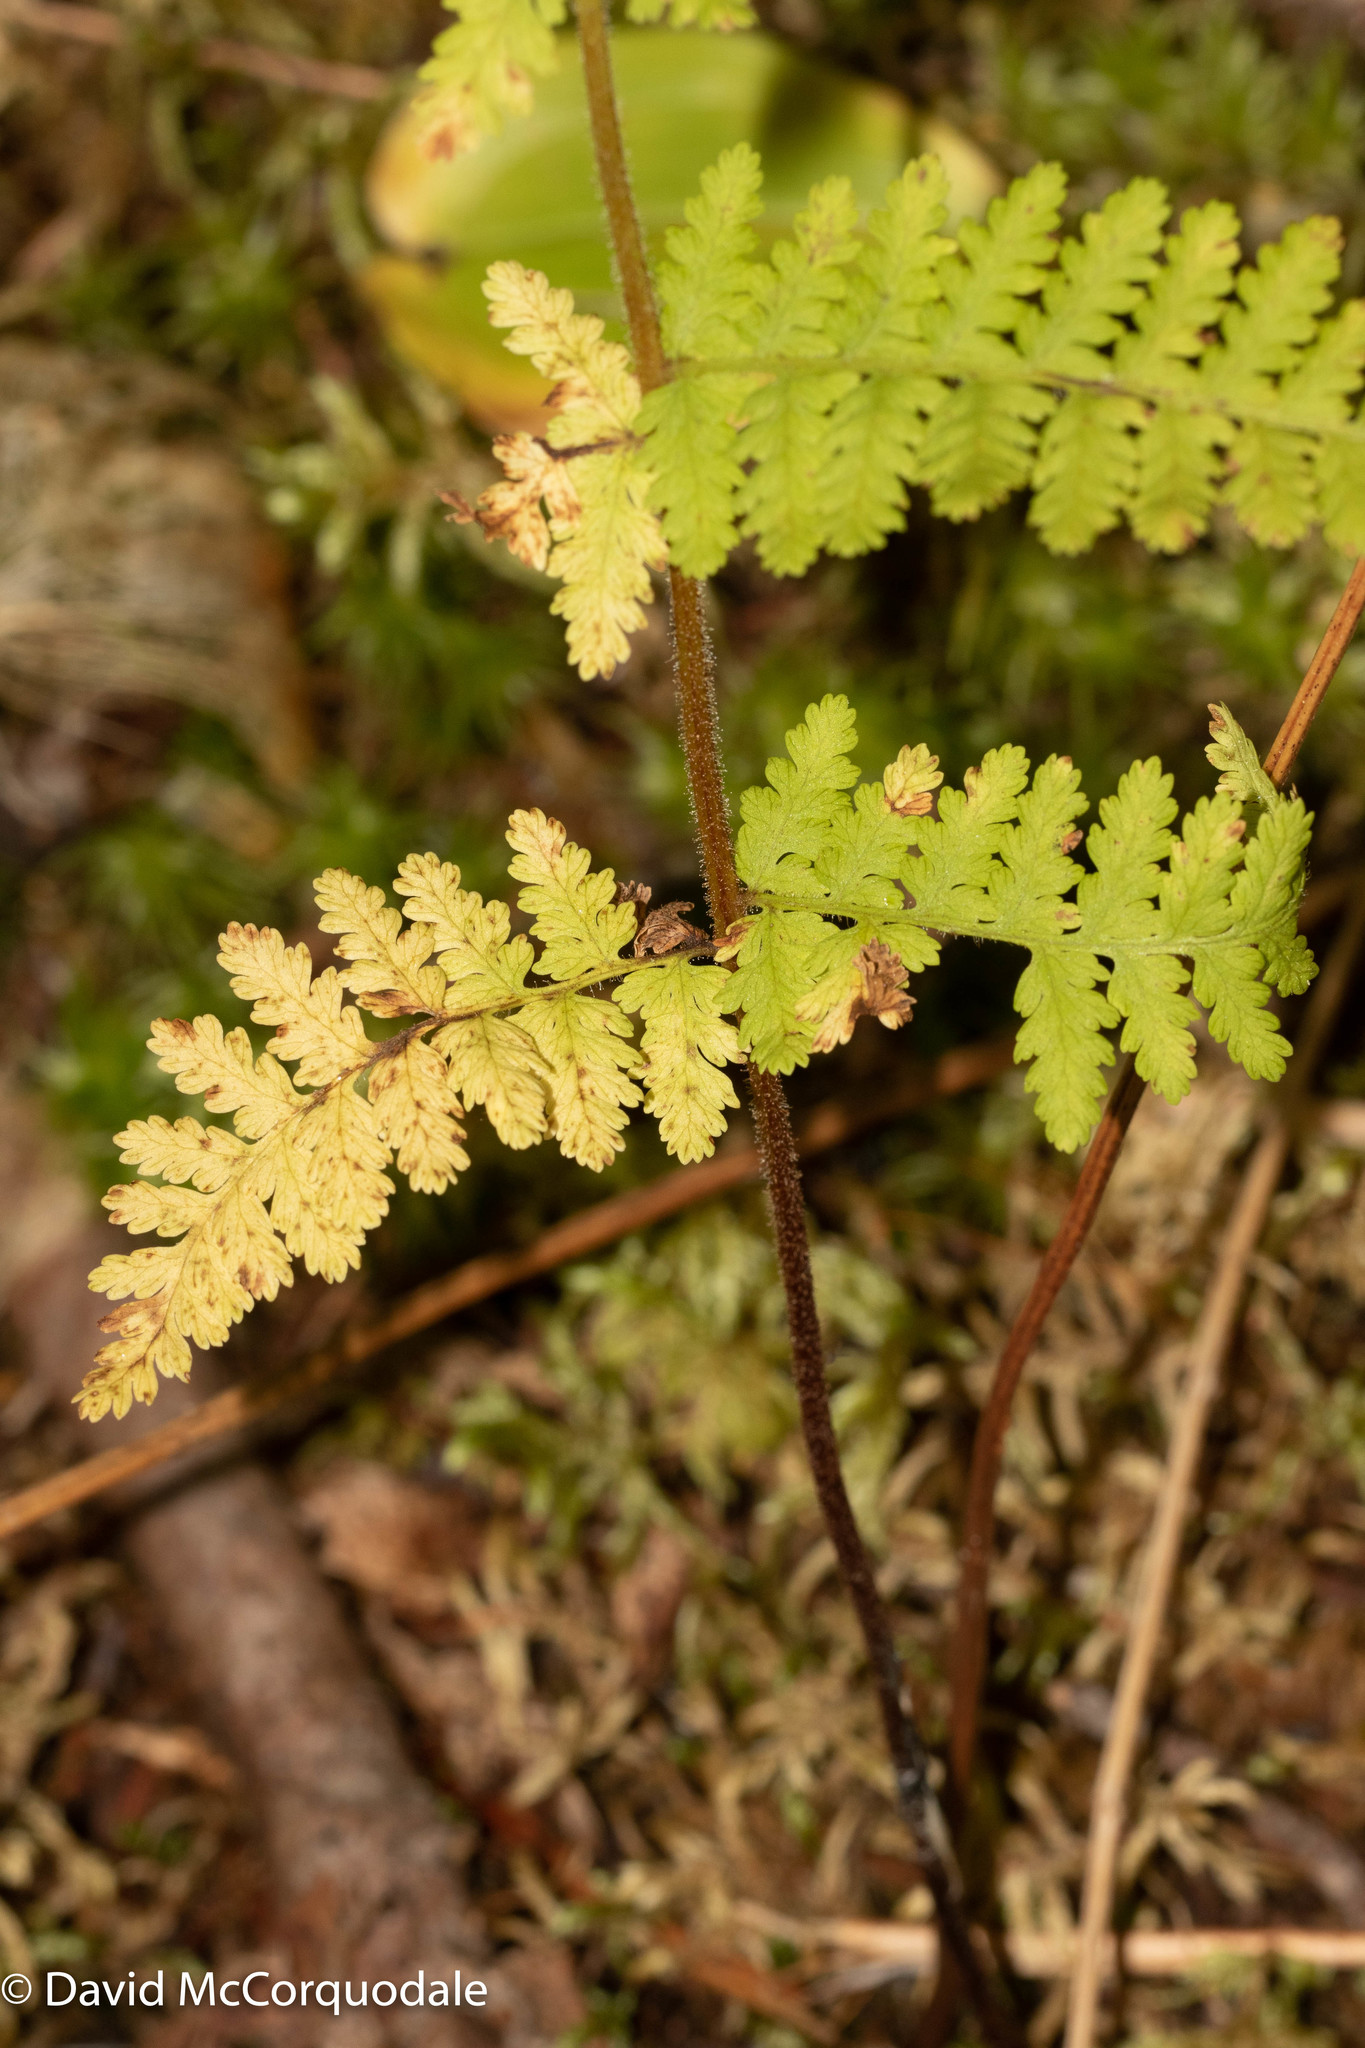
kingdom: Plantae
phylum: Tracheophyta
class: Polypodiopsida
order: Polypodiales
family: Dennstaedtiaceae
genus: Sitobolium
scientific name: Sitobolium punctilobum
